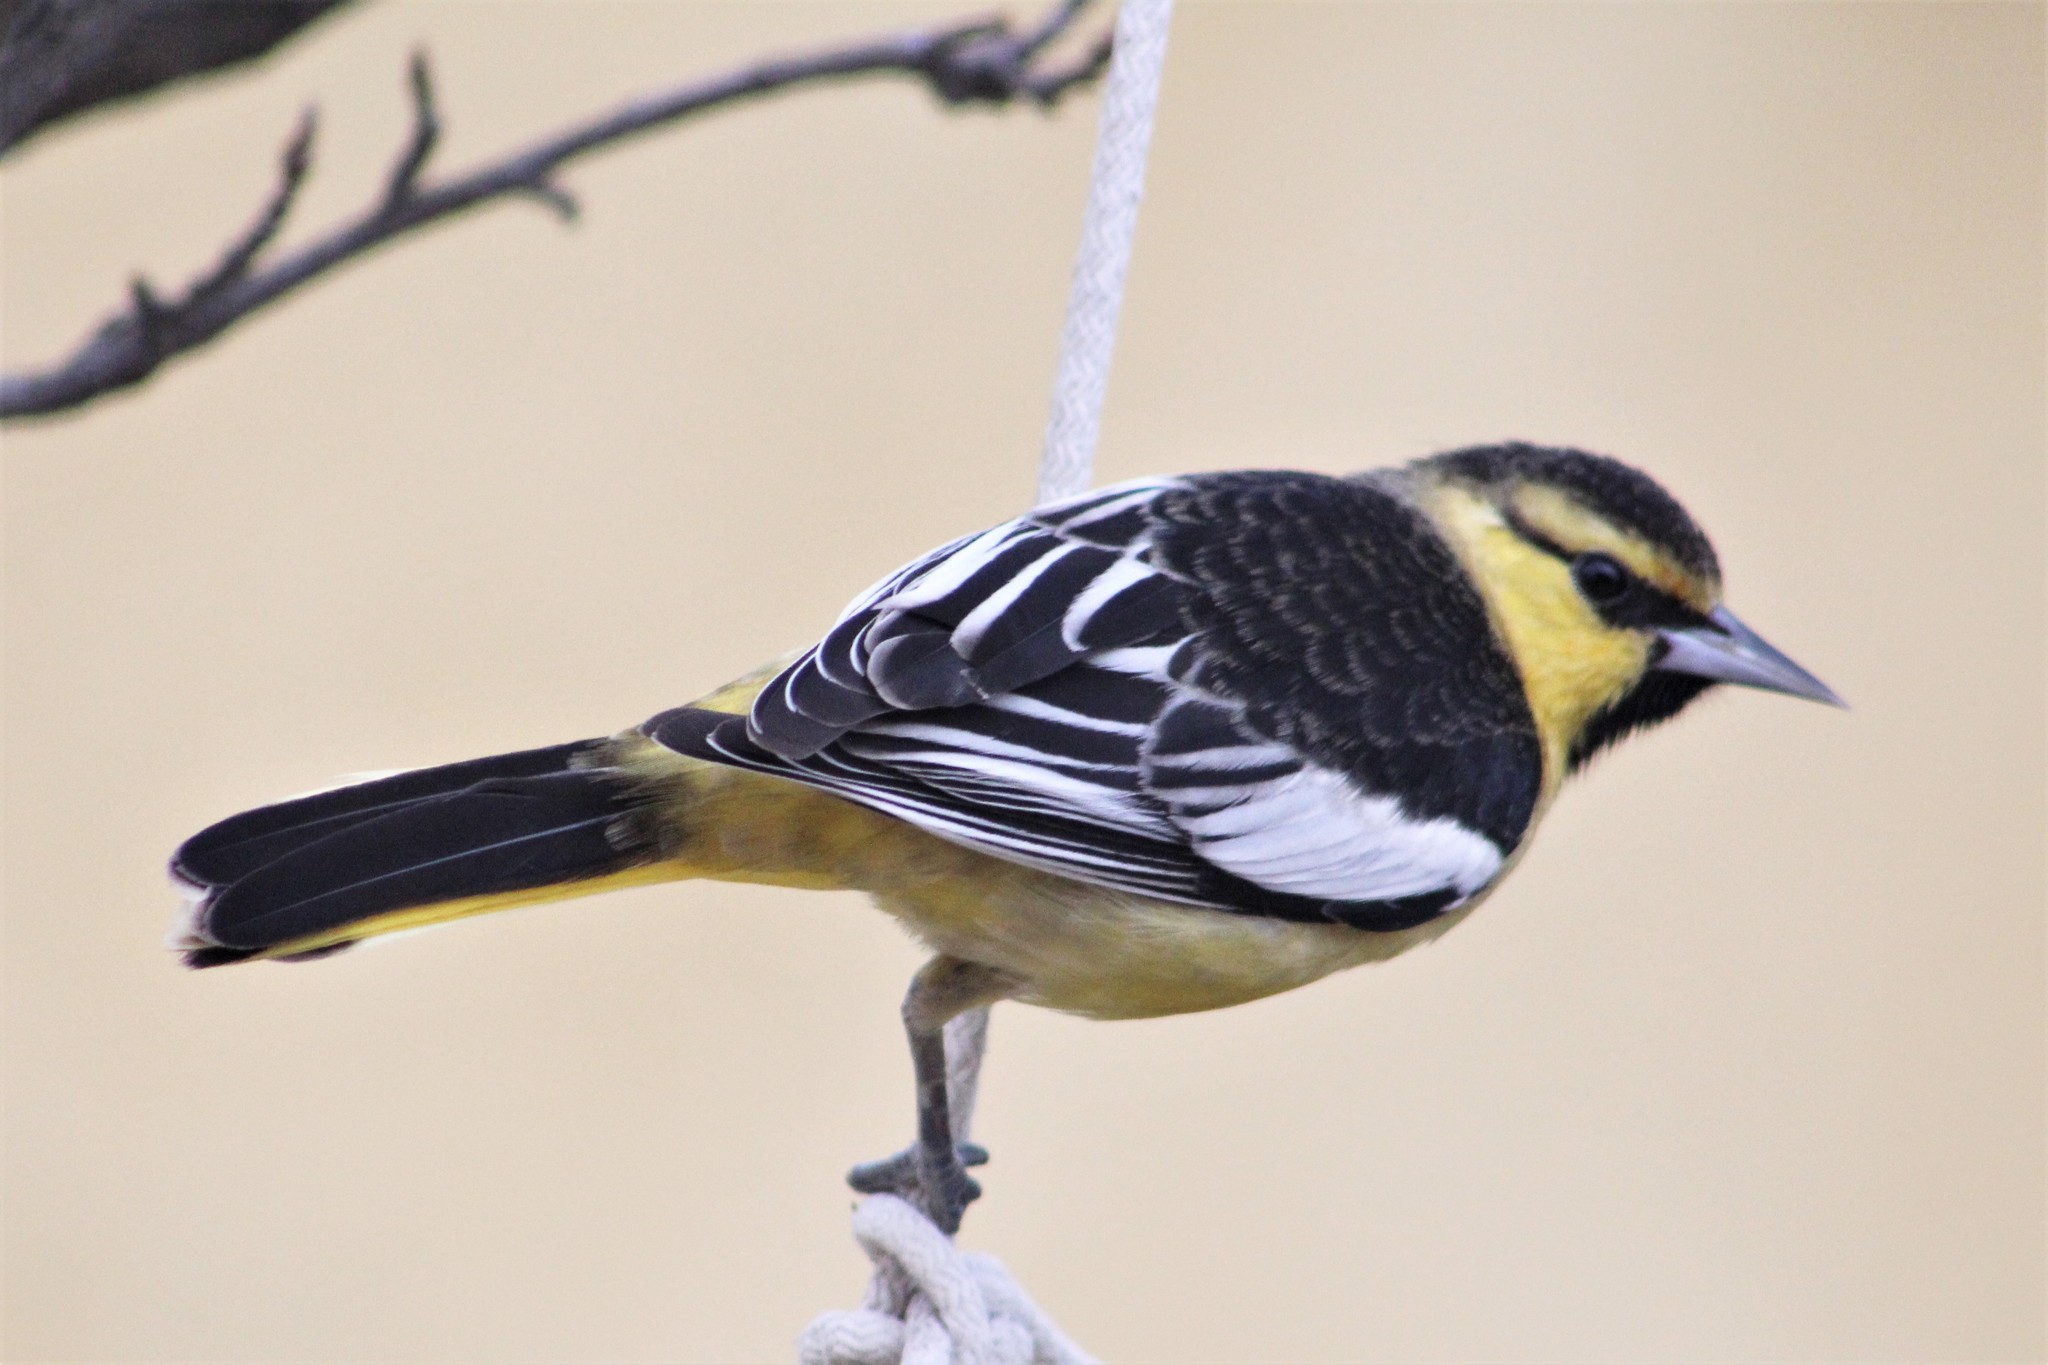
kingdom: Animalia
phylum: Chordata
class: Aves
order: Passeriformes
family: Icteridae
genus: Icterus
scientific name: Icterus bullockii
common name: Bullock's oriole
